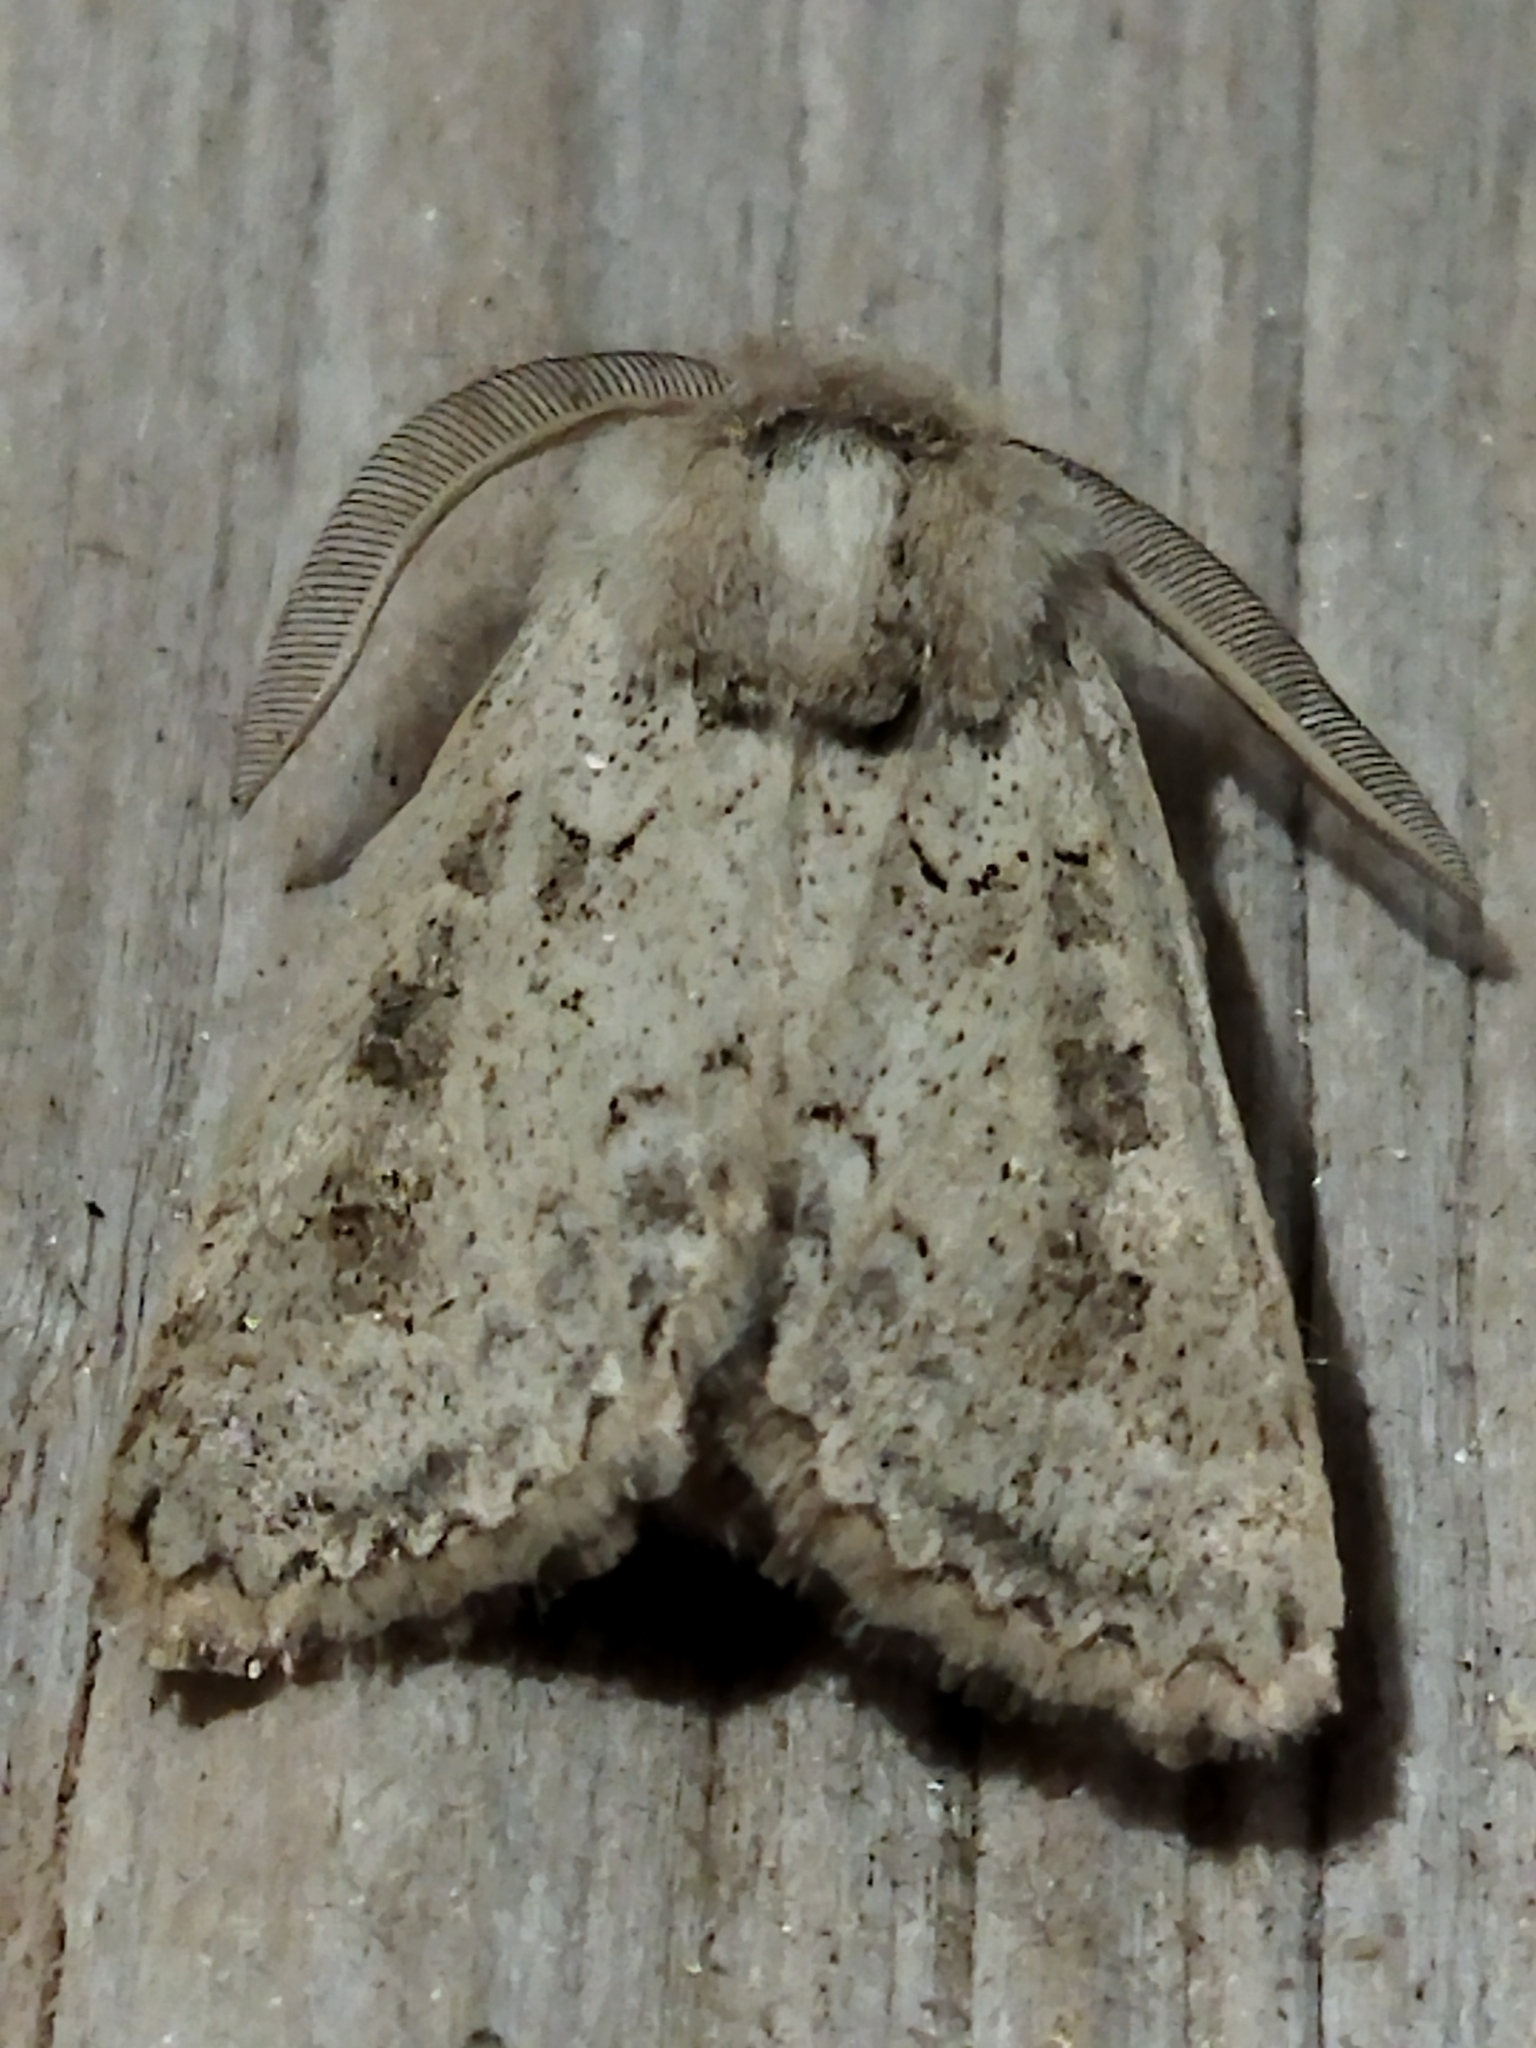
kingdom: Animalia
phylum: Arthropoda
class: Insecta
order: Lepidoptera
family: Noctuidae
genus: Episema
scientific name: Episema lederi
